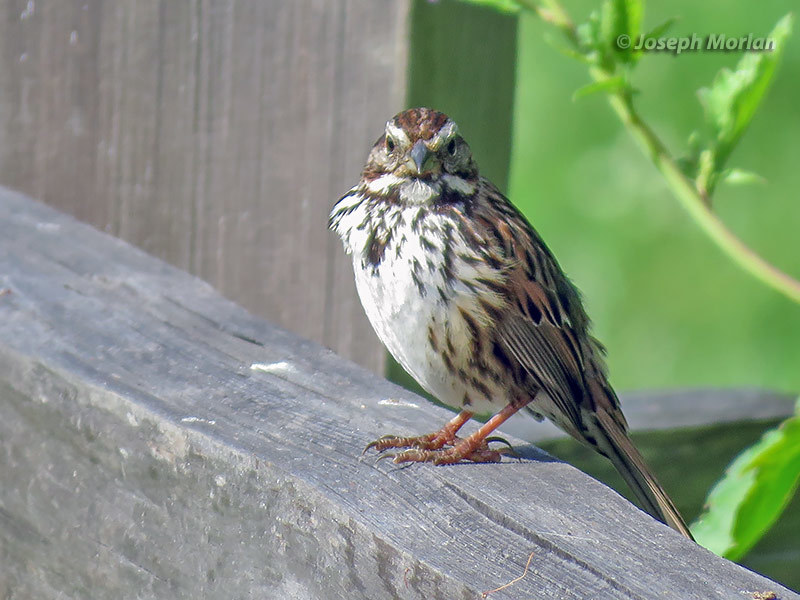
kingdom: Animalia
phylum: Chordata
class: Aves
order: Passeriformes
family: Passerellidae
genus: Melospiza
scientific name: Melospiza melodia
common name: Song sparrow
